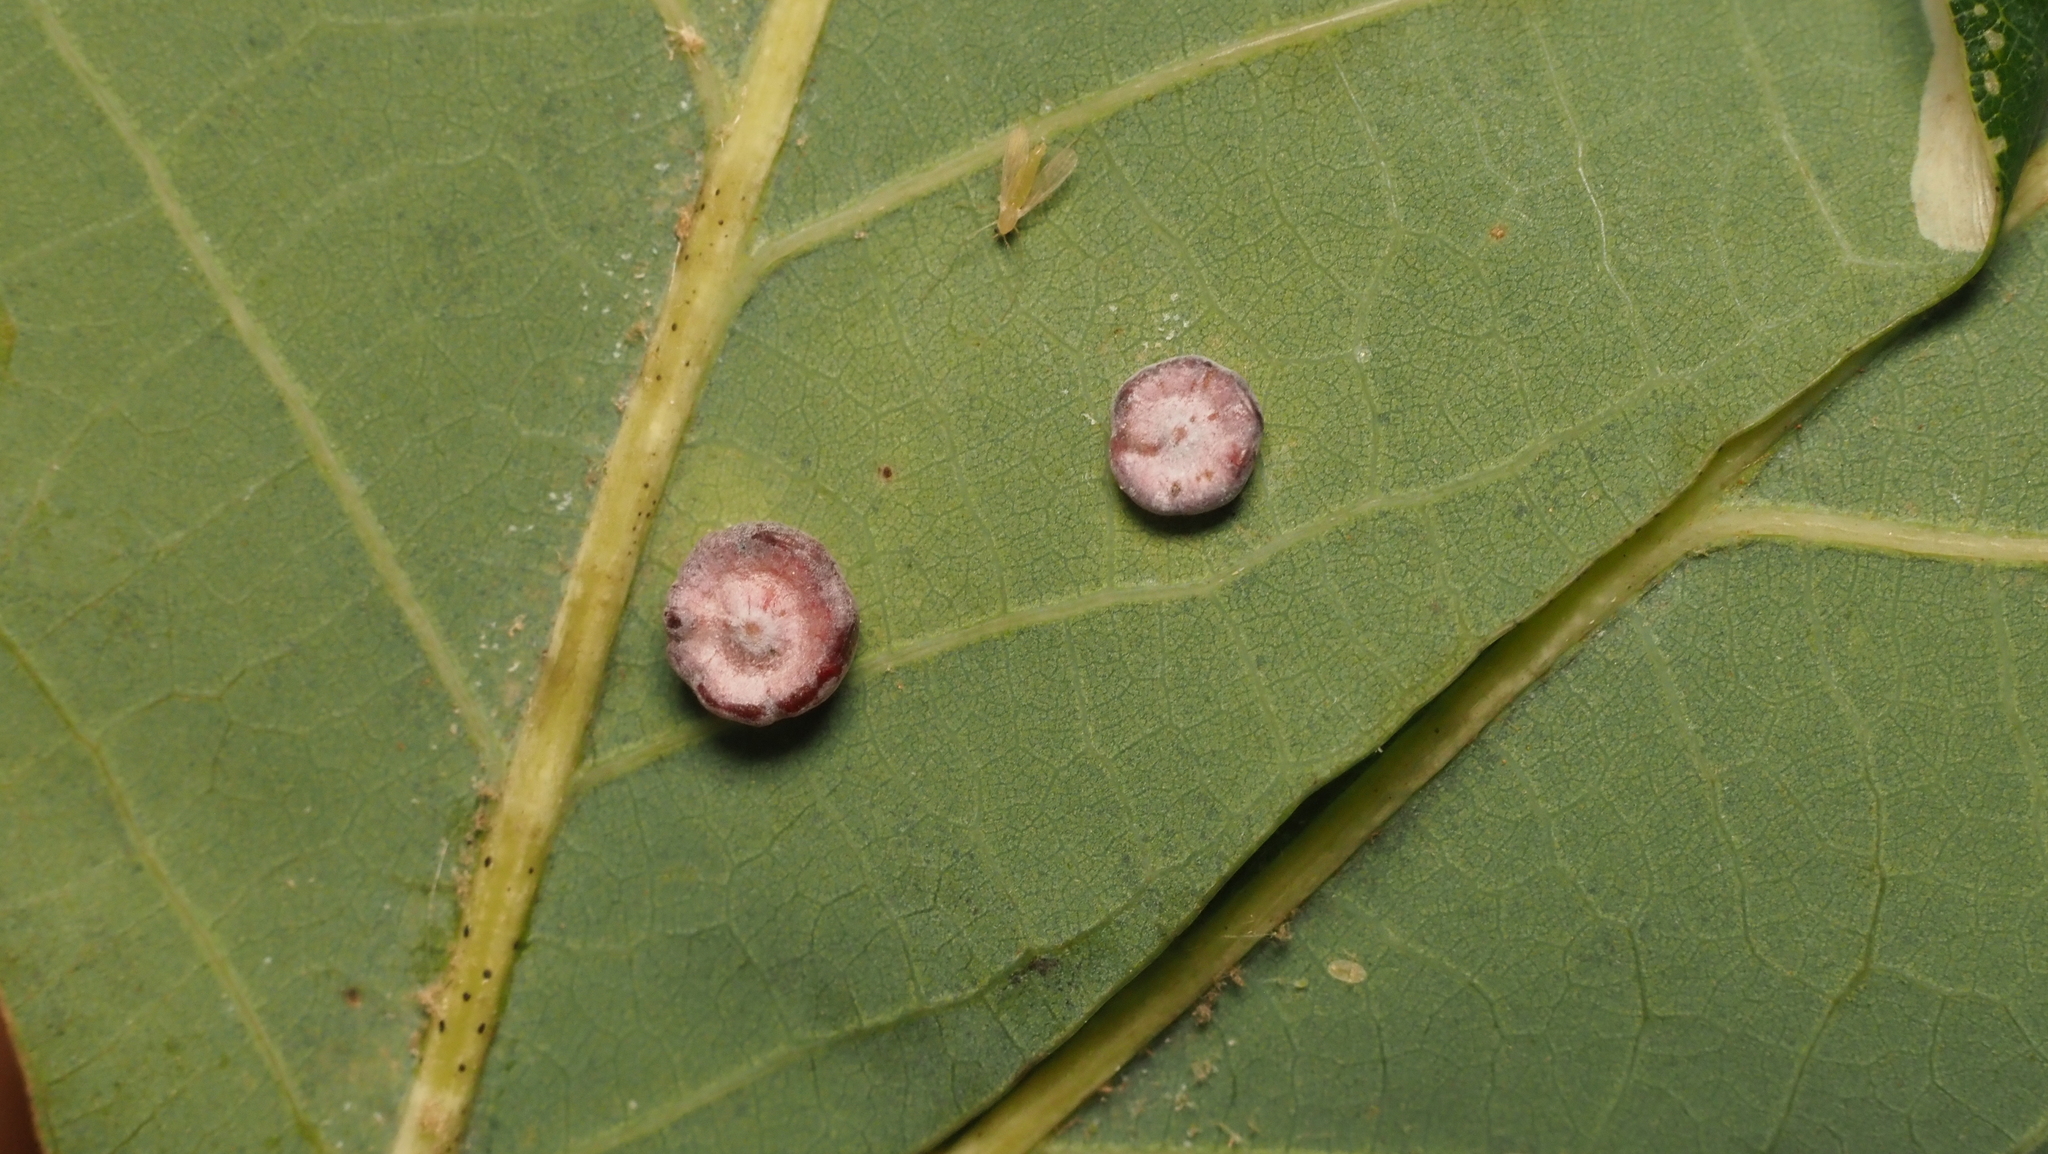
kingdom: Animalia
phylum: Arthropoda
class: Insecta
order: Hymenoptera
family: Cynipidae
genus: Phylloteras
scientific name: Phylloteras poculum
